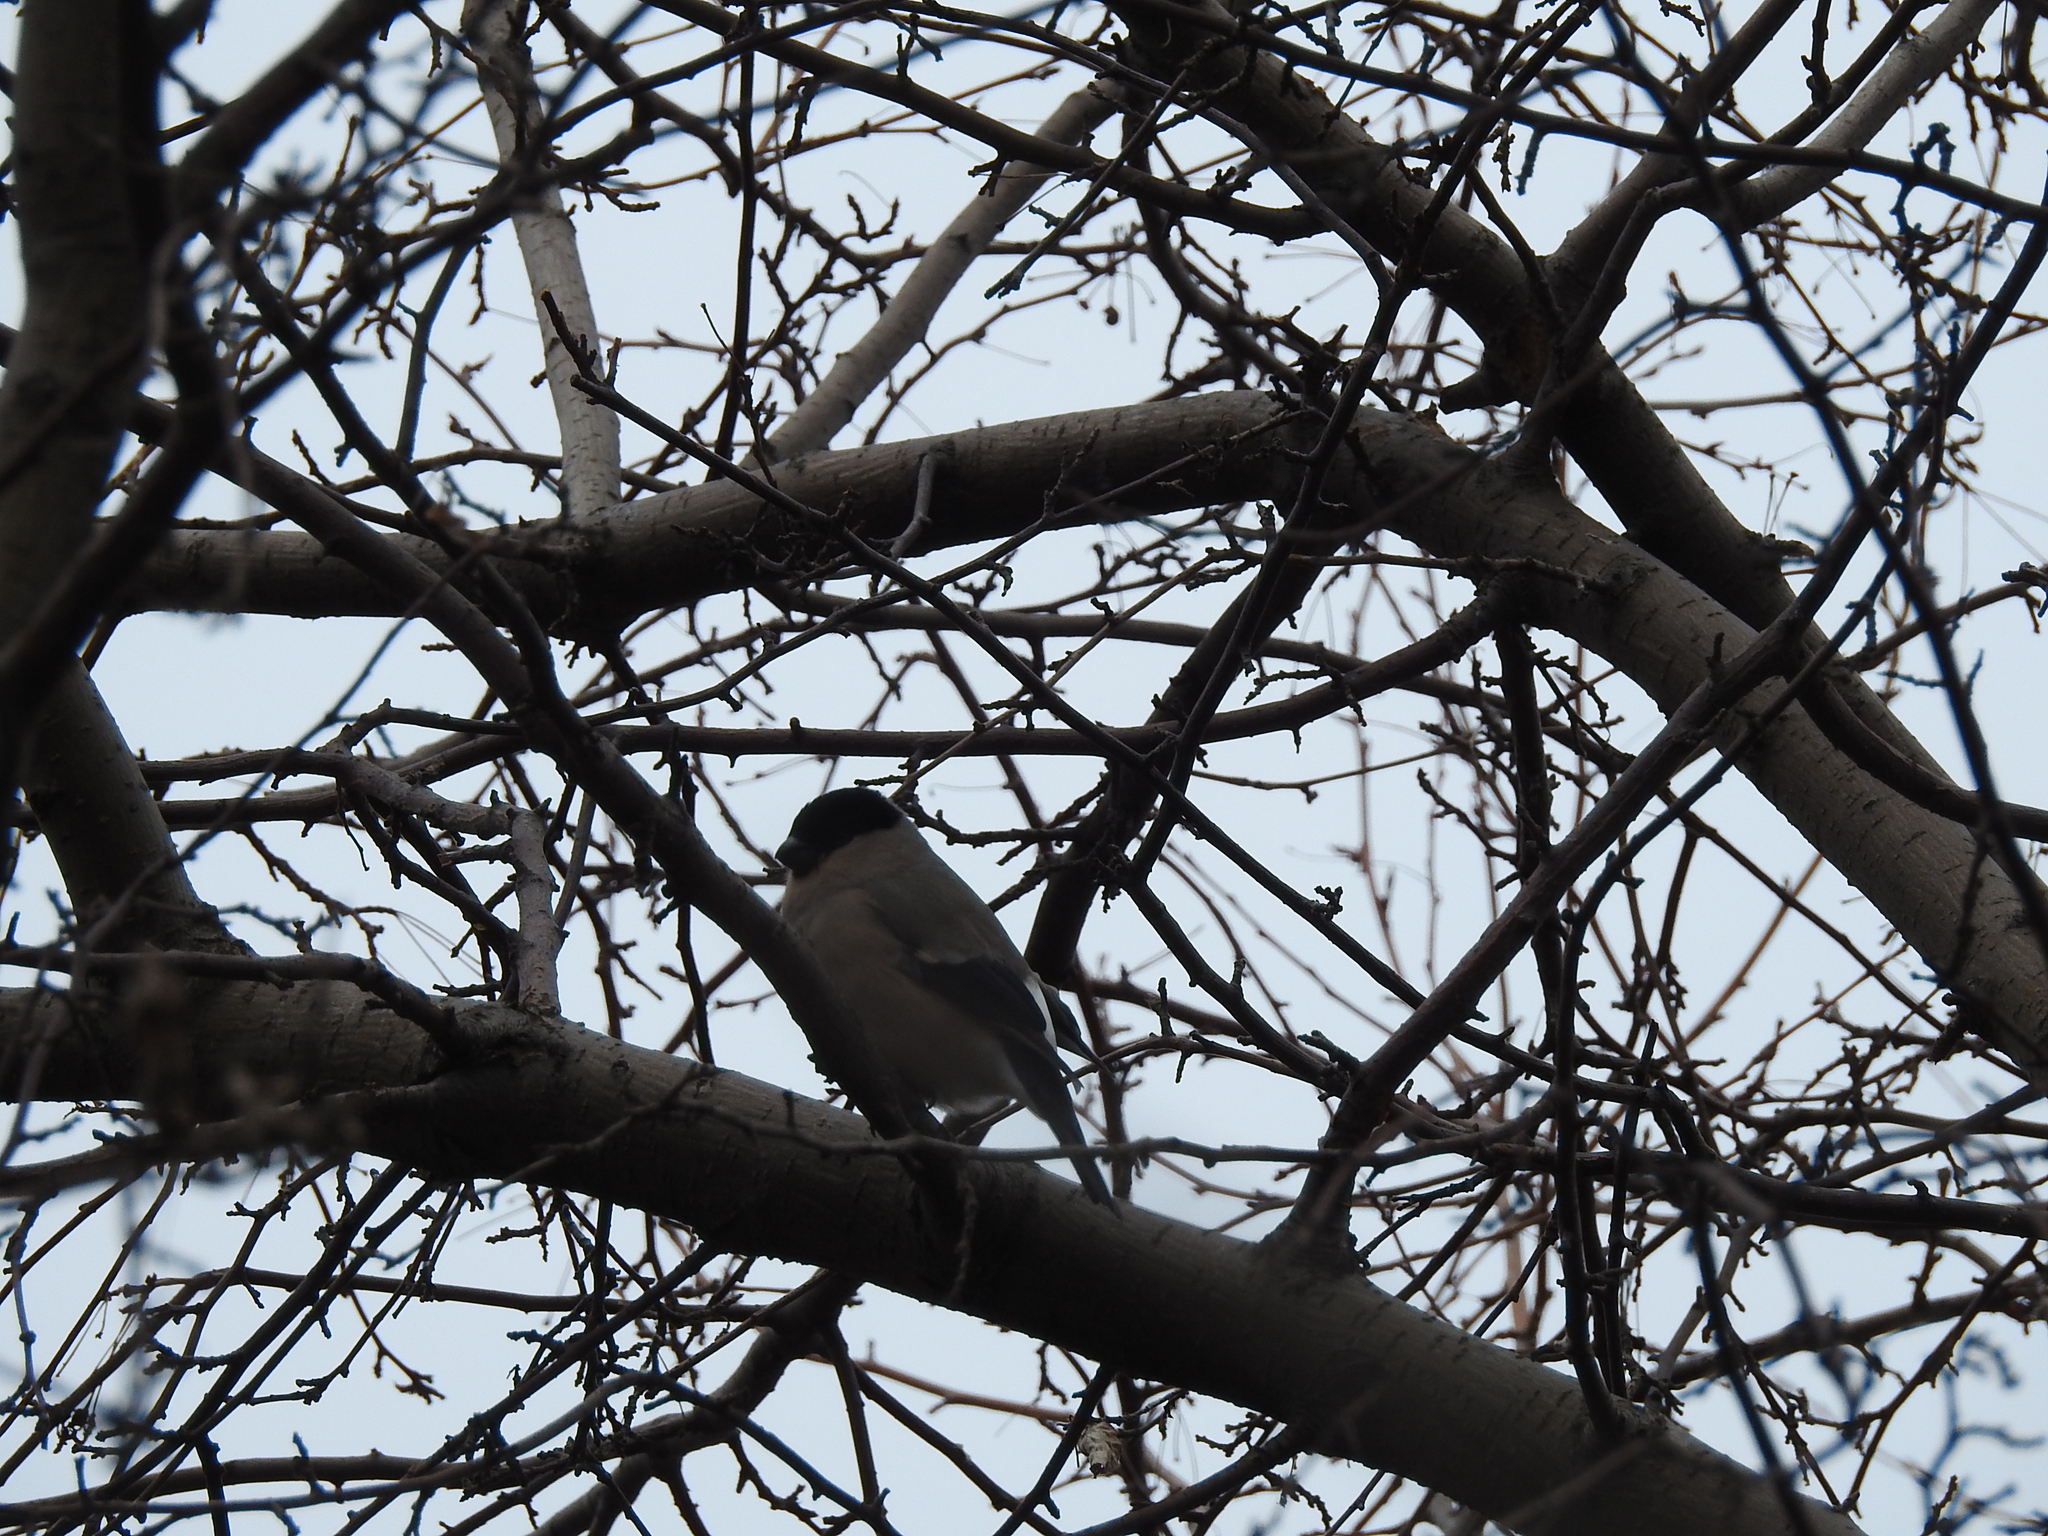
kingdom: Animalia
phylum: Chordata
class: Aves
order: Passeriformes
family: Fringillidae
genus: Pyrrhula
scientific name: Pyrrhula pyrrhula
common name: Eurasian bullfinch
